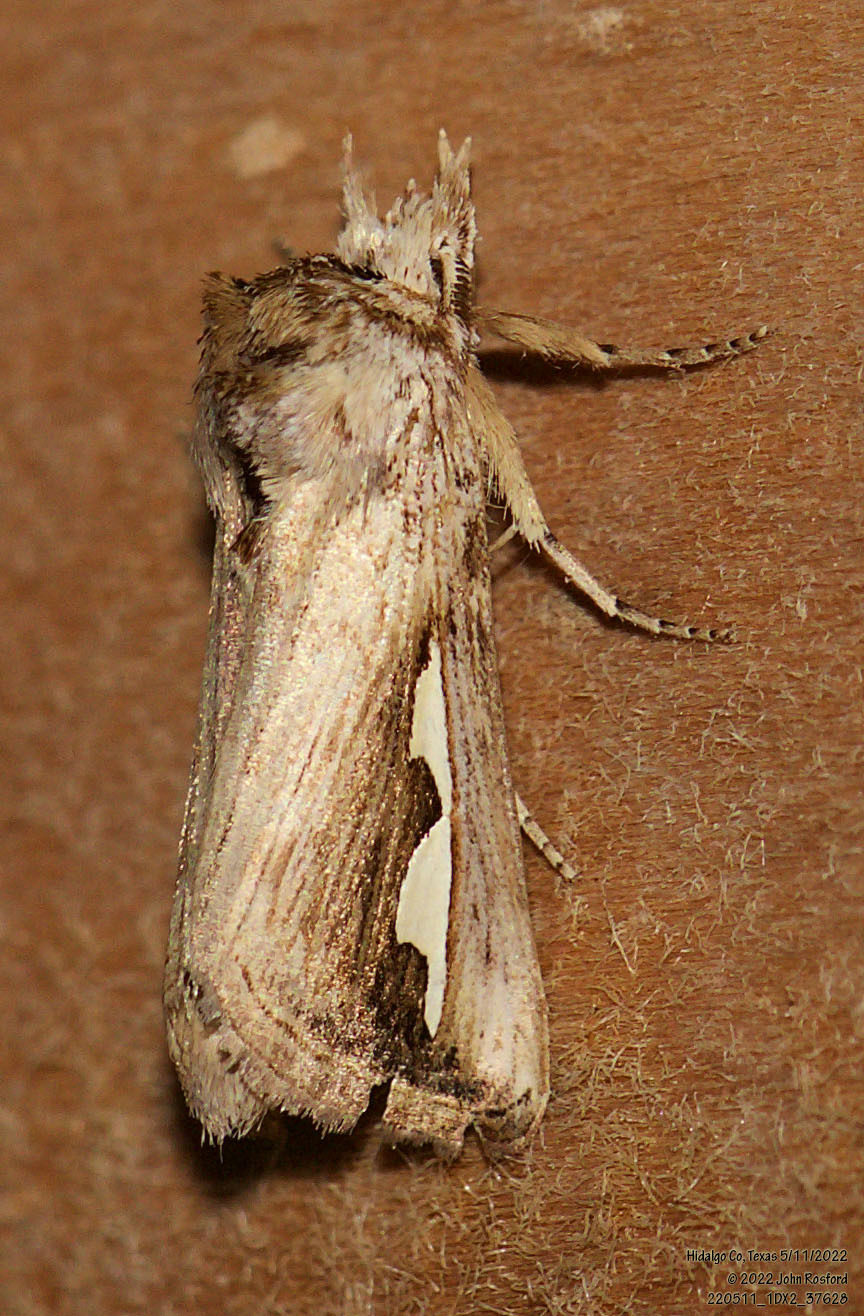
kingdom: Animalia
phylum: Arthropoda
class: Insecta
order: Lepidoptera
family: Notodontidae
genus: Didugua
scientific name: Didugua argentilinea
